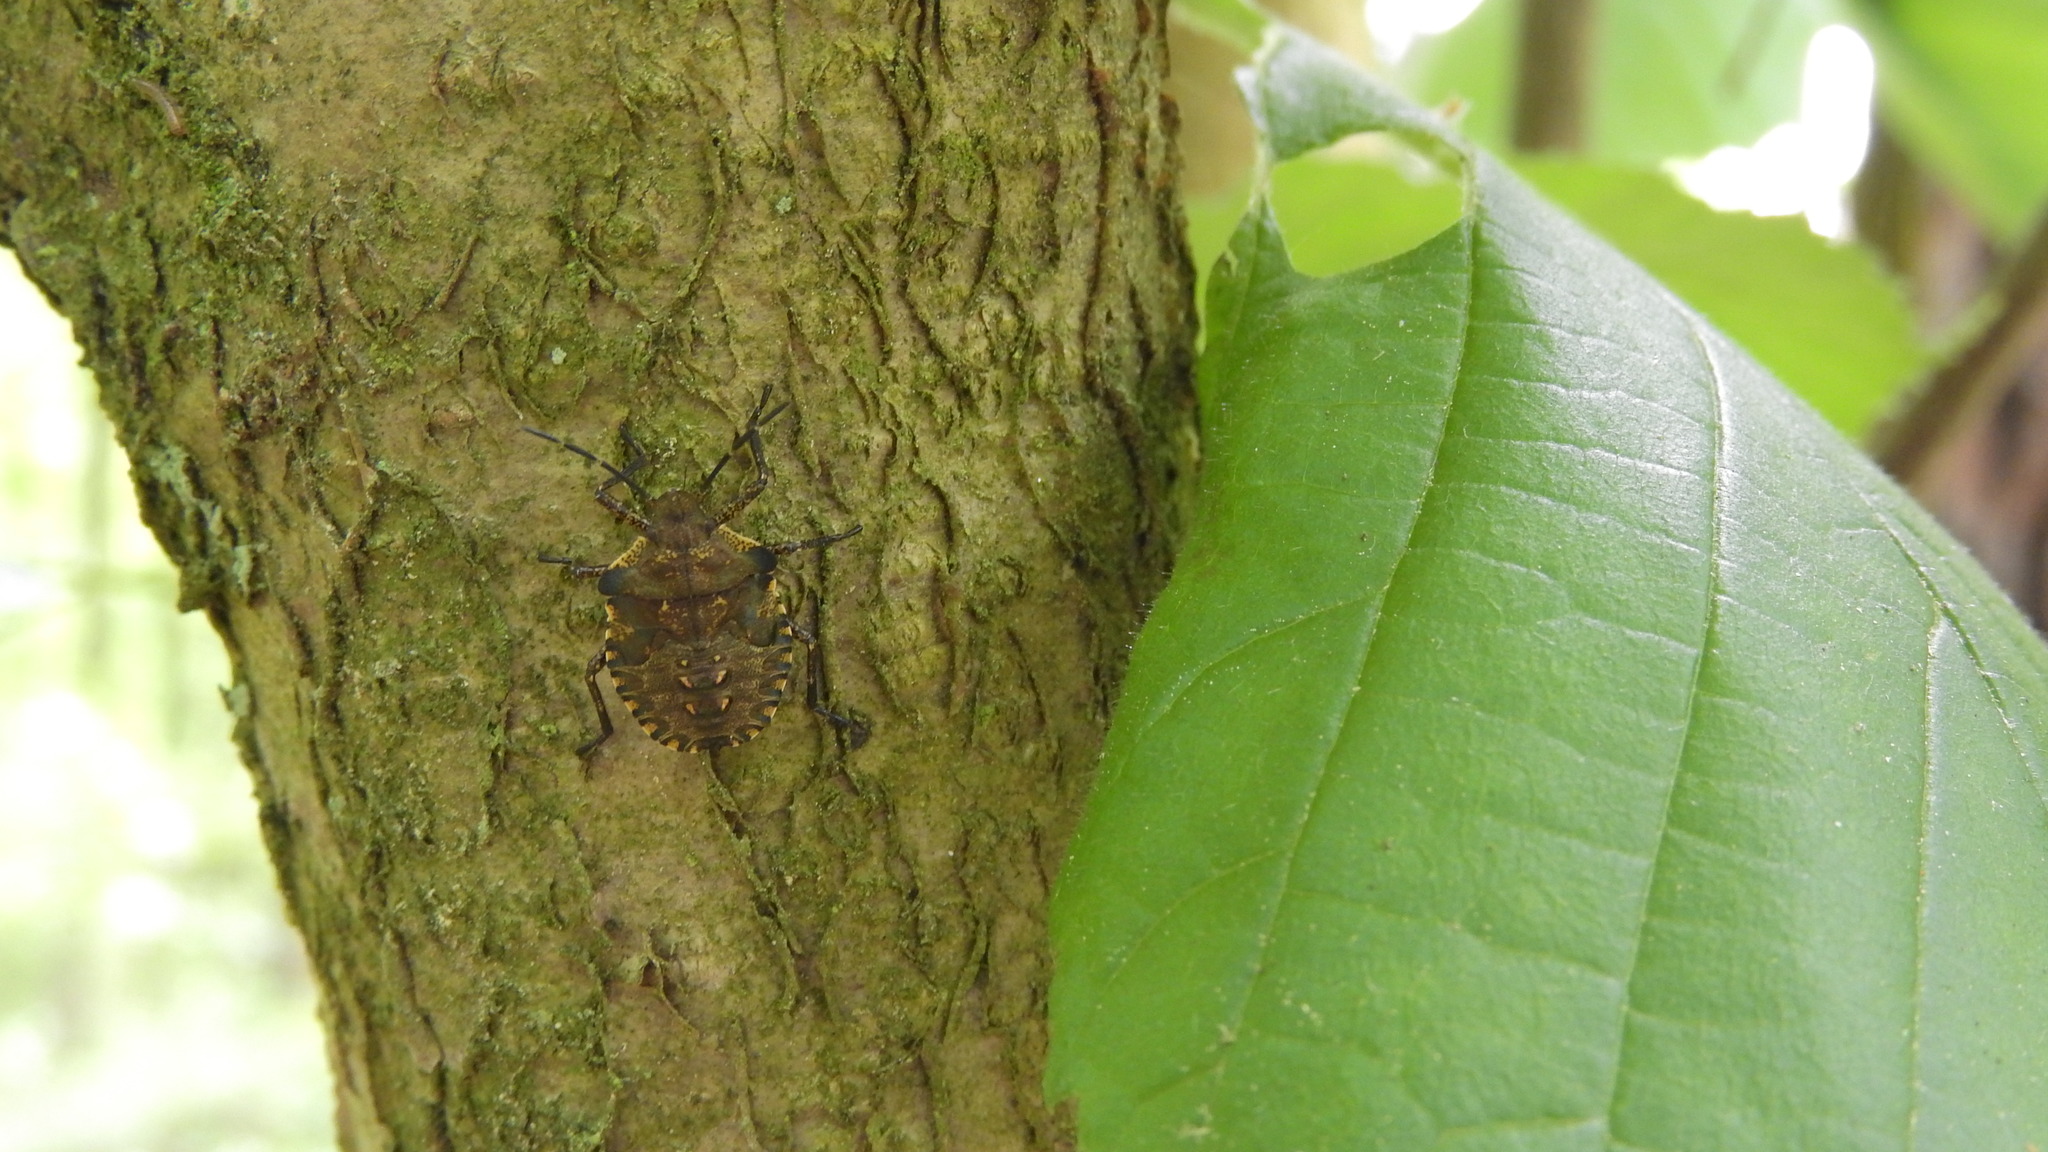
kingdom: Animalia
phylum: Arthropoda
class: Insecta
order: Hemiptera
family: Pentatomidae
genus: Pentatoma
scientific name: Pentatoma rufipes
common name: Forest bug
